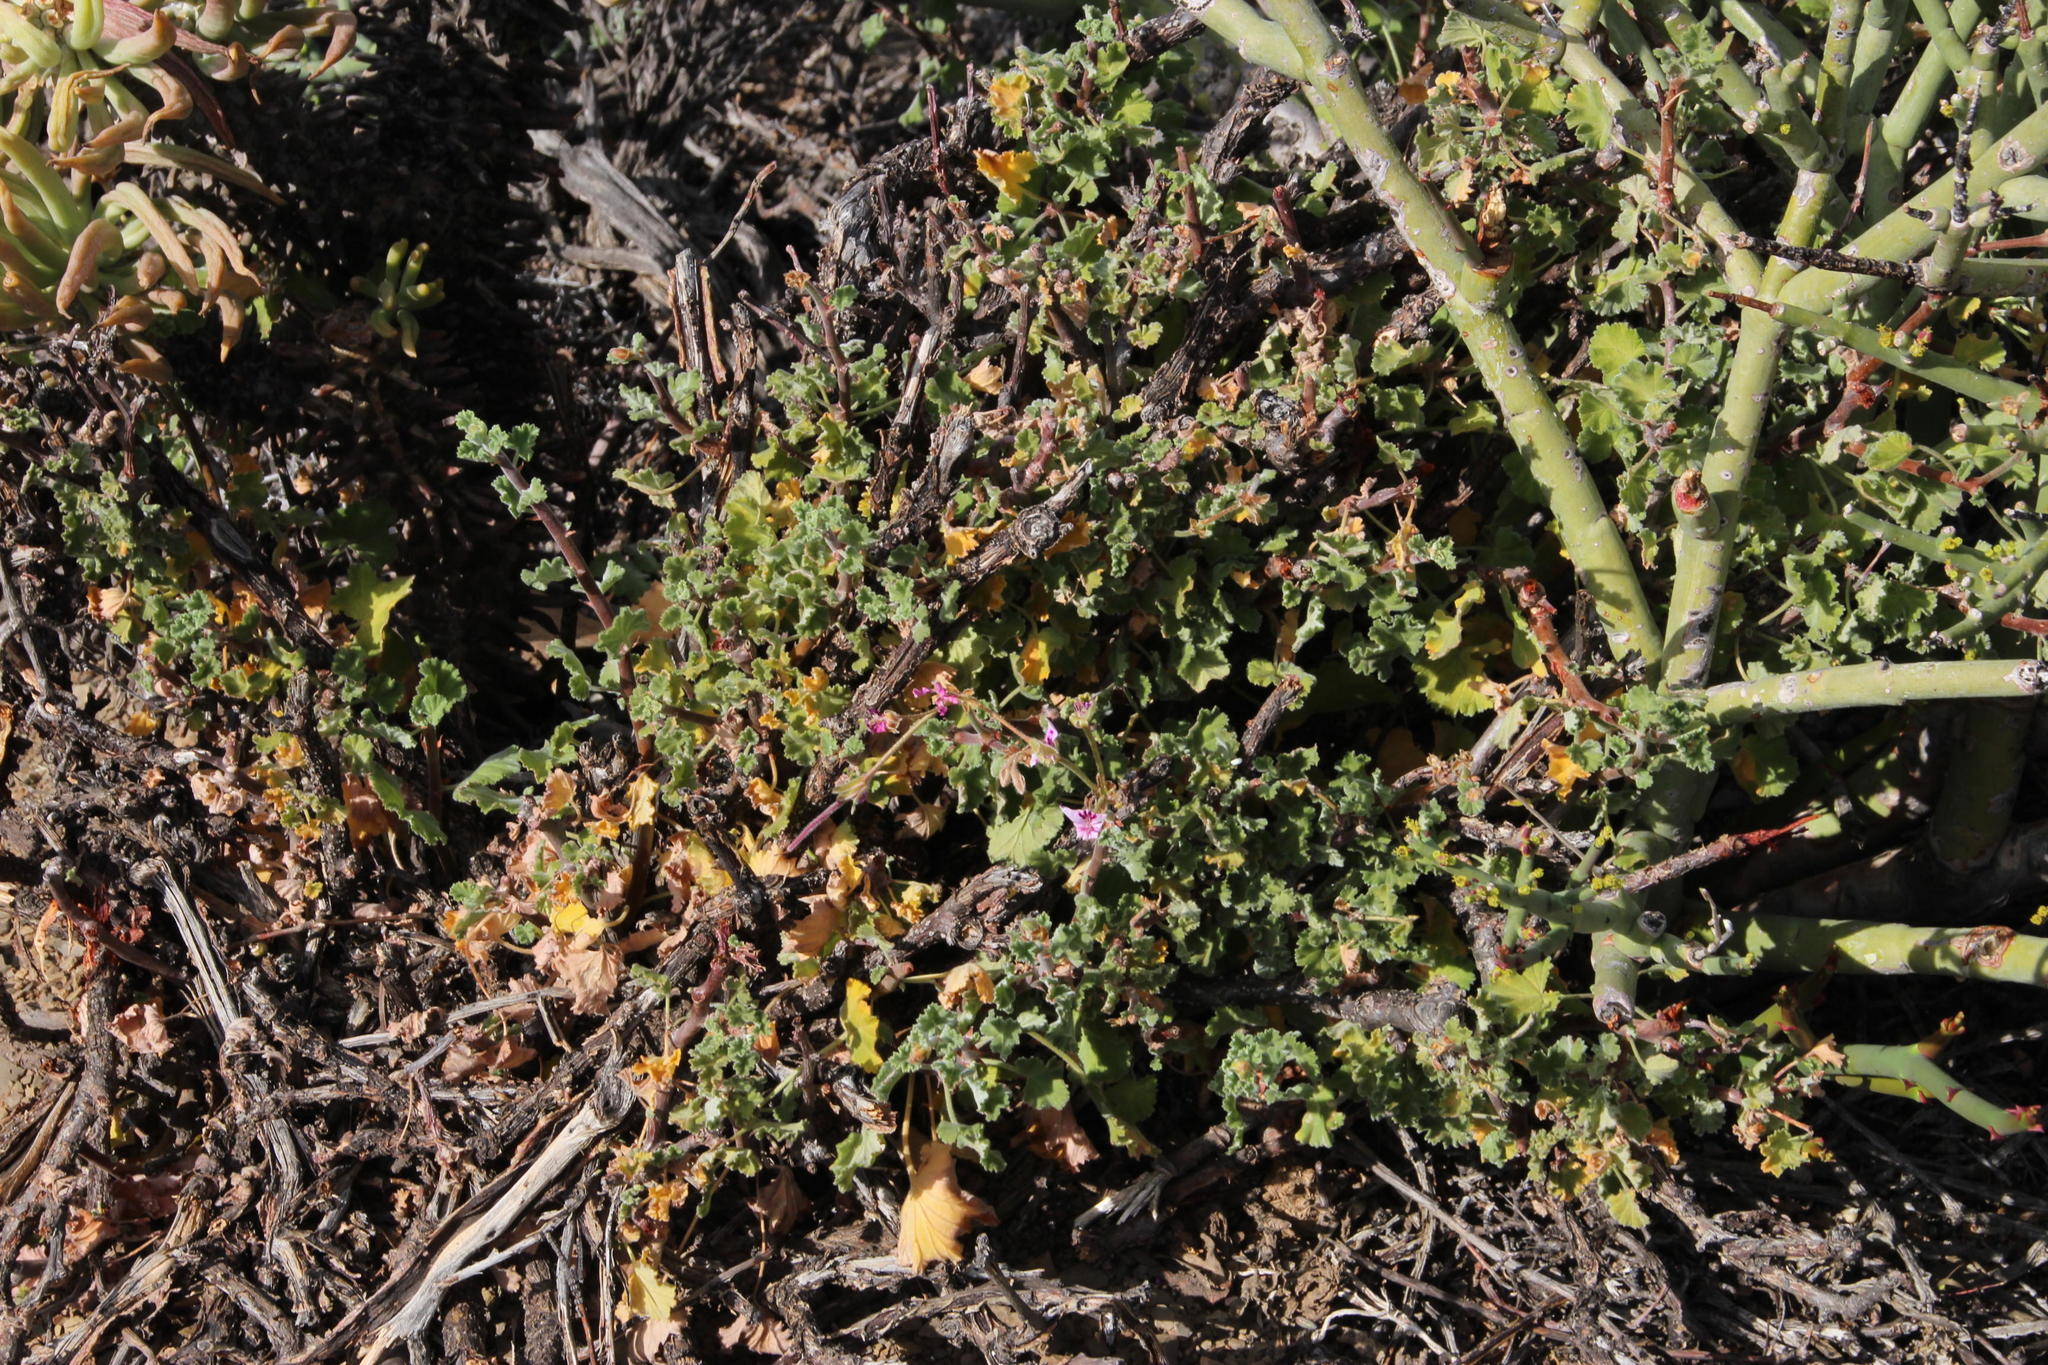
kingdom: Plantae
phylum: Tracheophyta
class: Magnoliopsida
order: Geraniales
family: Geraniaceae
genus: Pelargonium
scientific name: Pelargonium magenteum
